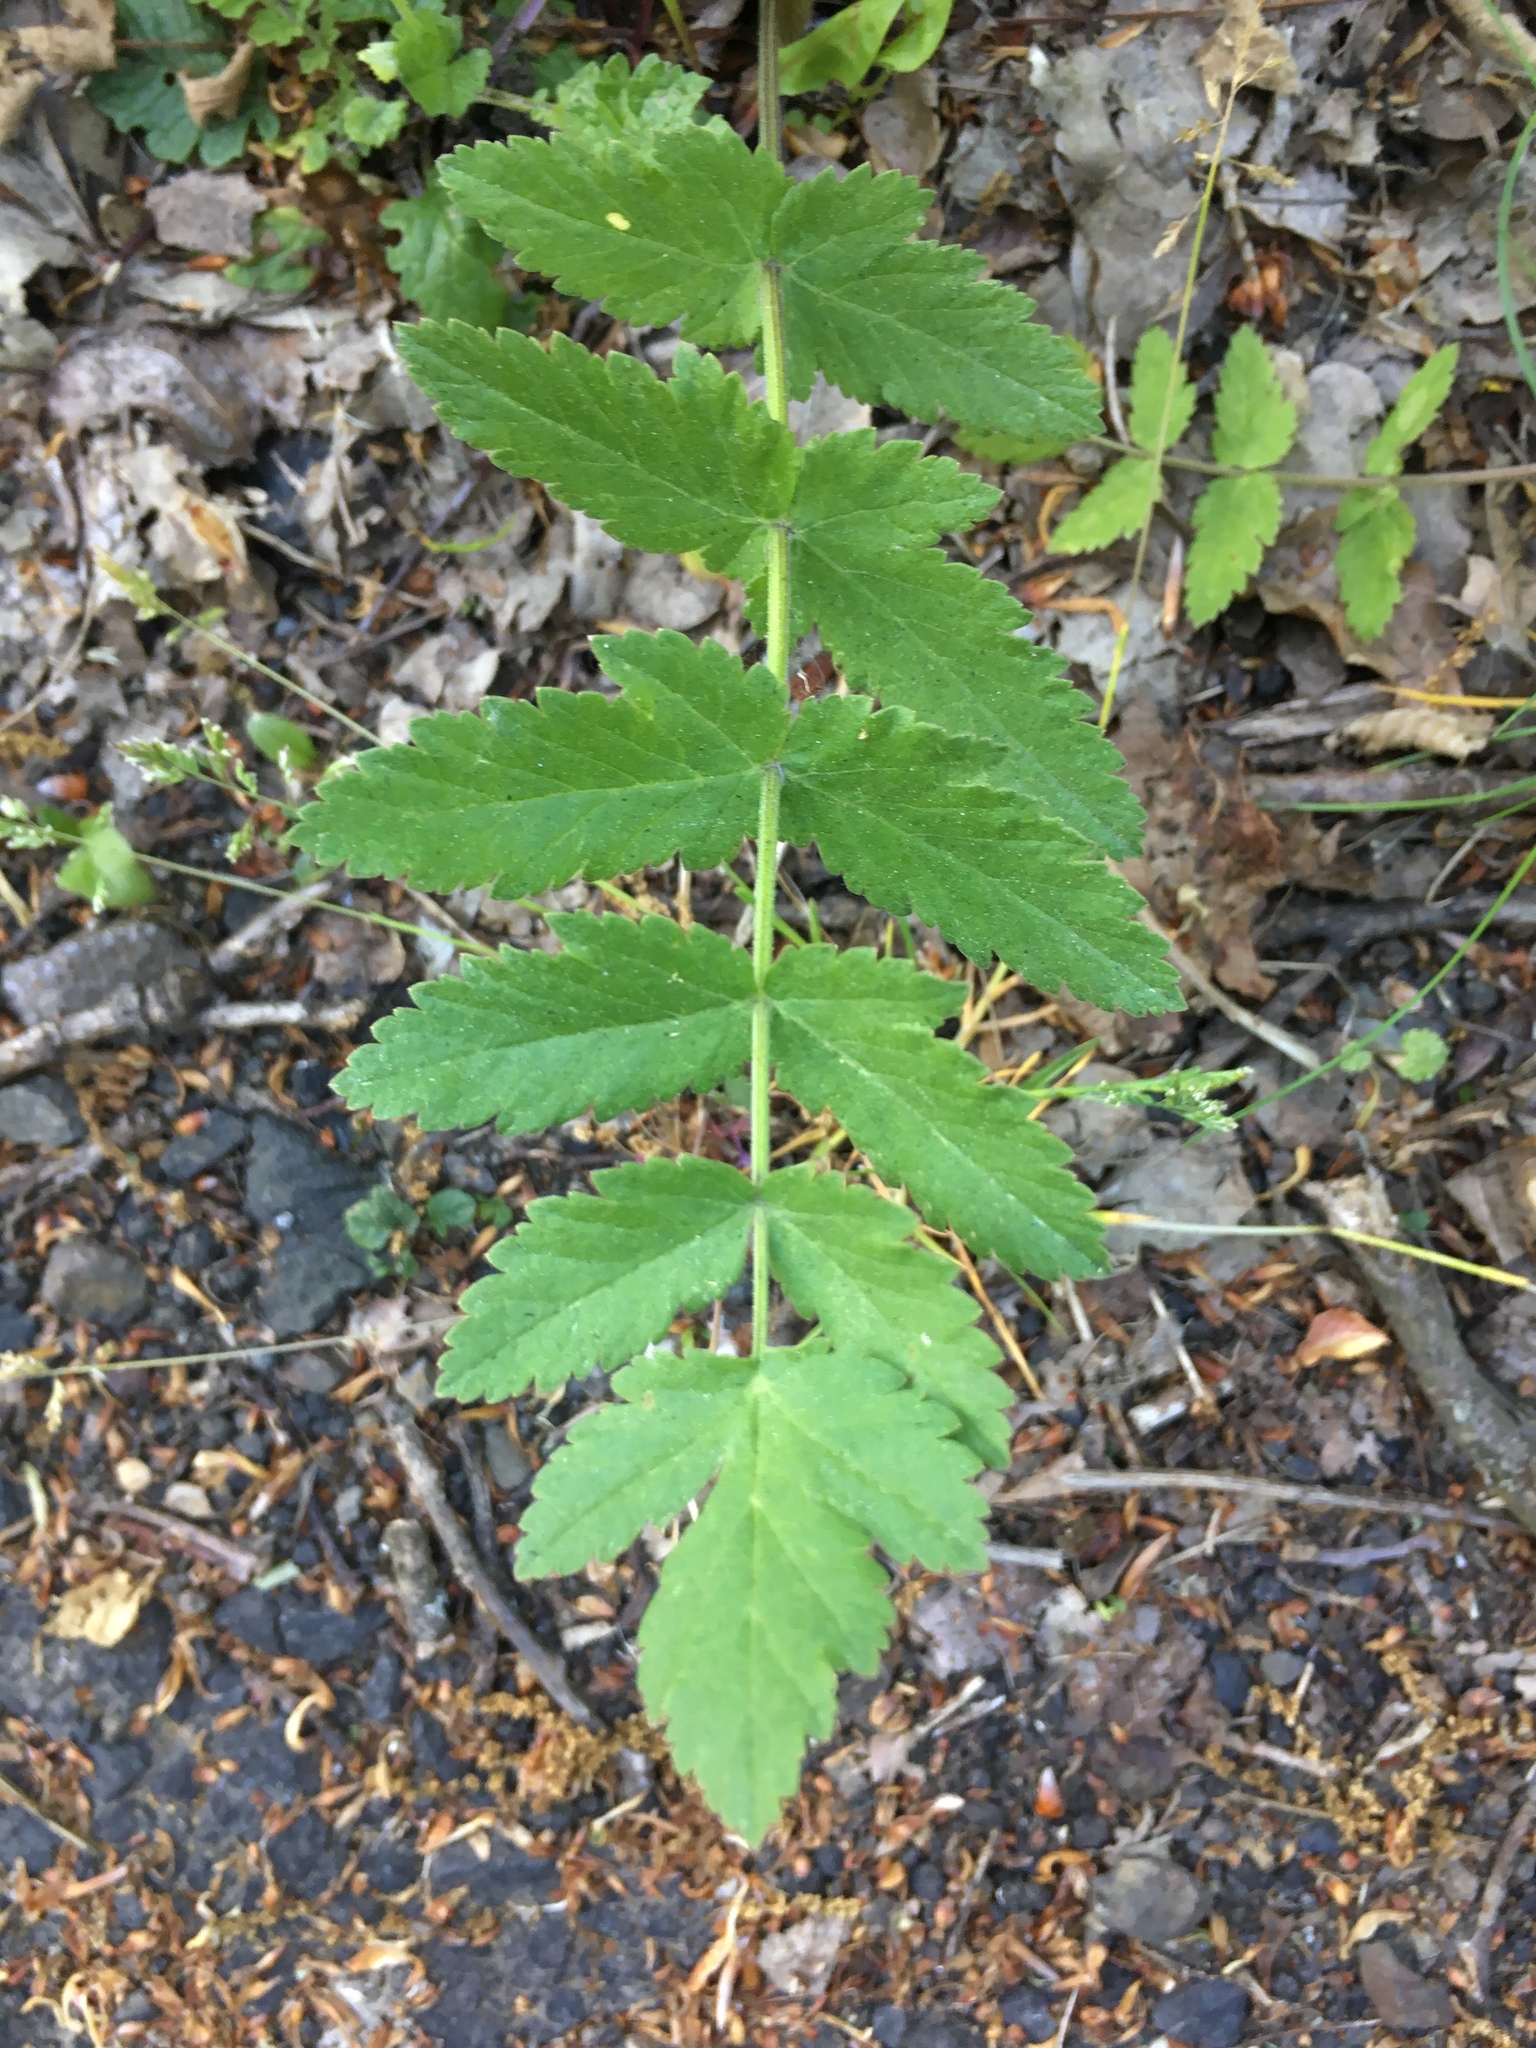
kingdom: Plantae
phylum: Tracheophyta
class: Magnoliopsida
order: Apiales
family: Apiaceae
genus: Pastinaca
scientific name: Pastinaca sativa
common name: Wild parsnip
